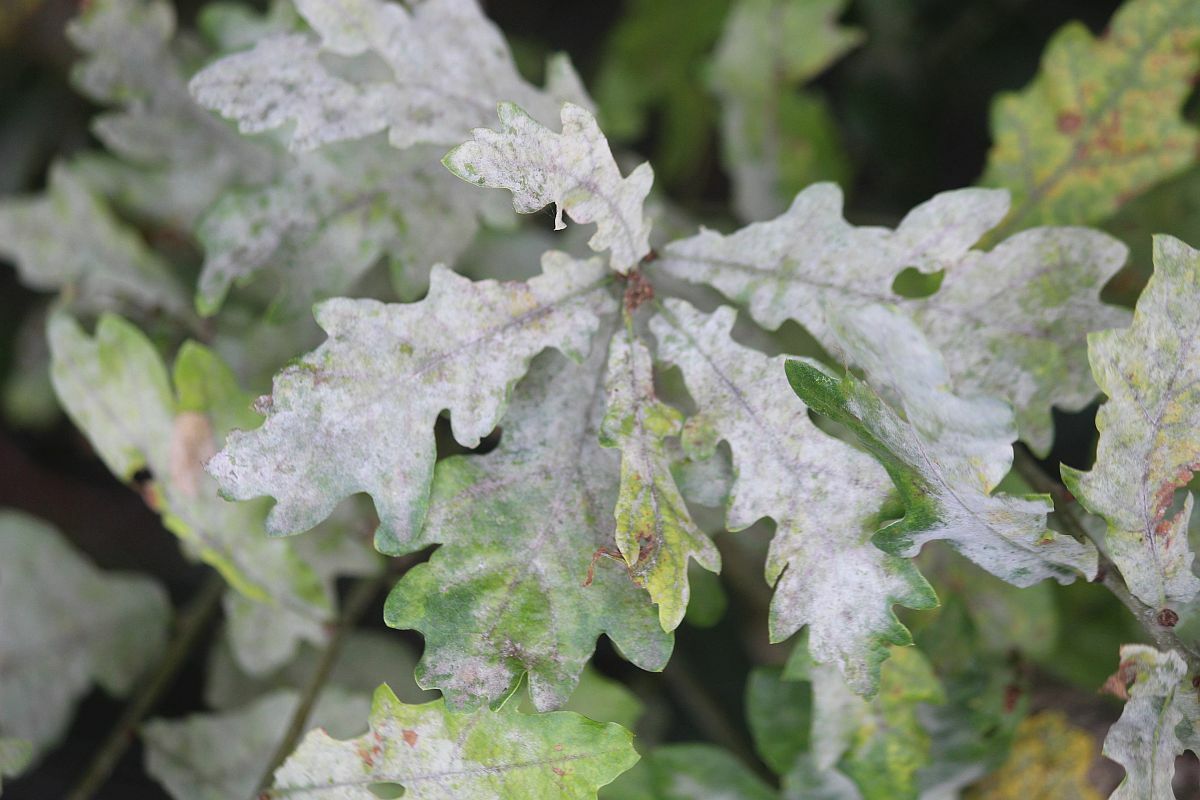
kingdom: Fungi
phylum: Ascomycota
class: Leotiomycetes
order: Helotiales
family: Erysiphaceae
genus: Erysiphe
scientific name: Erysiphe alphitoides
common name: Oak mildew
